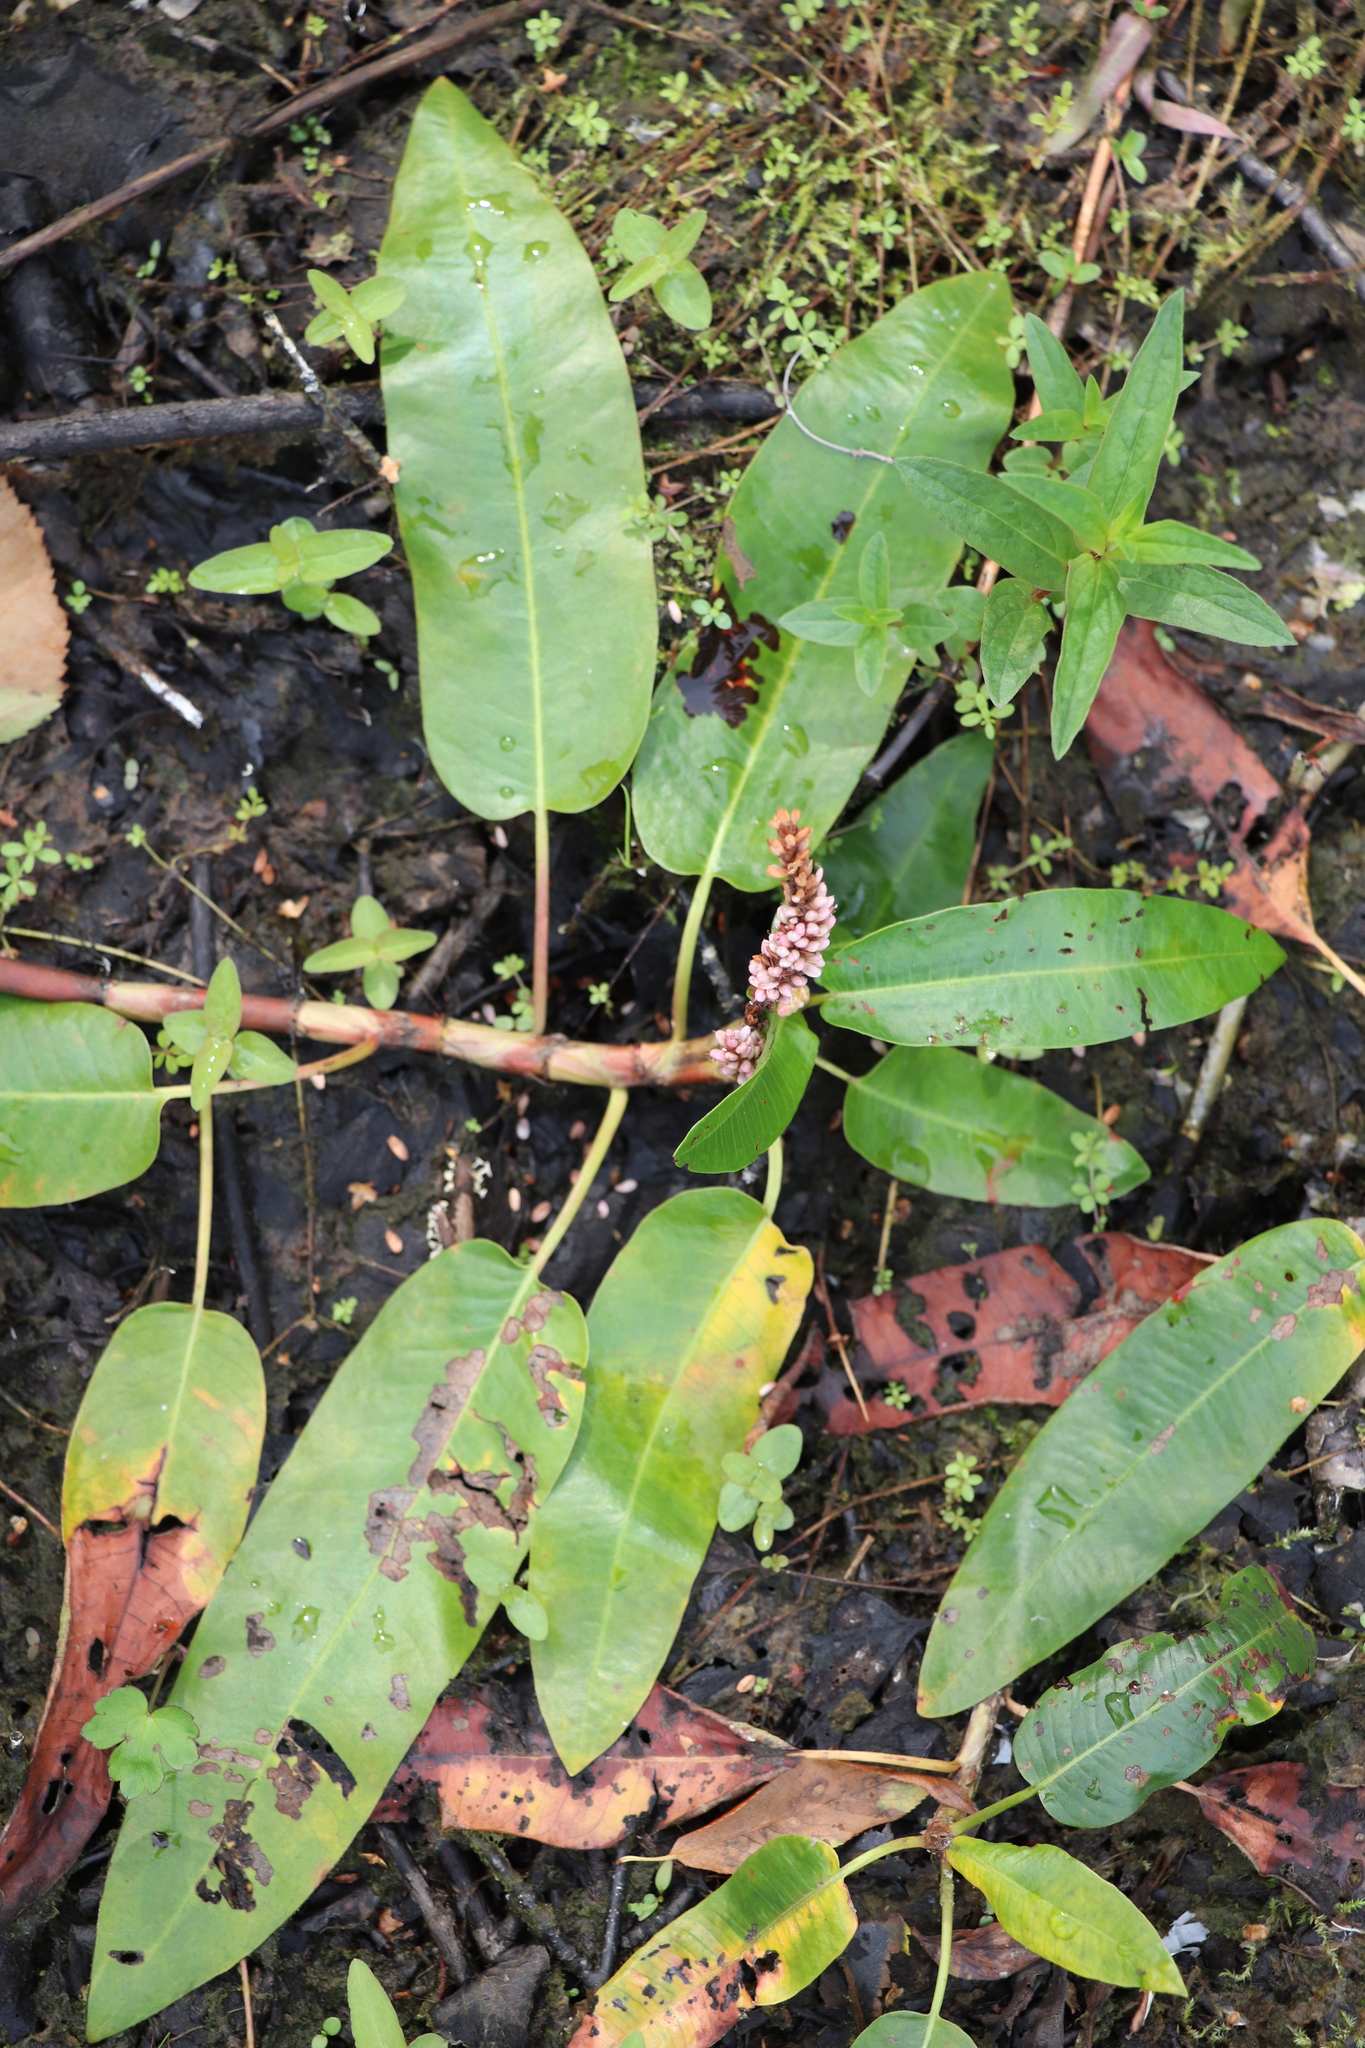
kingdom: Plantae
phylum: Tracheophyta
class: Magnoliopsida
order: Caryophyllales
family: Polygonaceae
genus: Persicaria
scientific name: Persicaria amphibia
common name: Amphibious bistort
